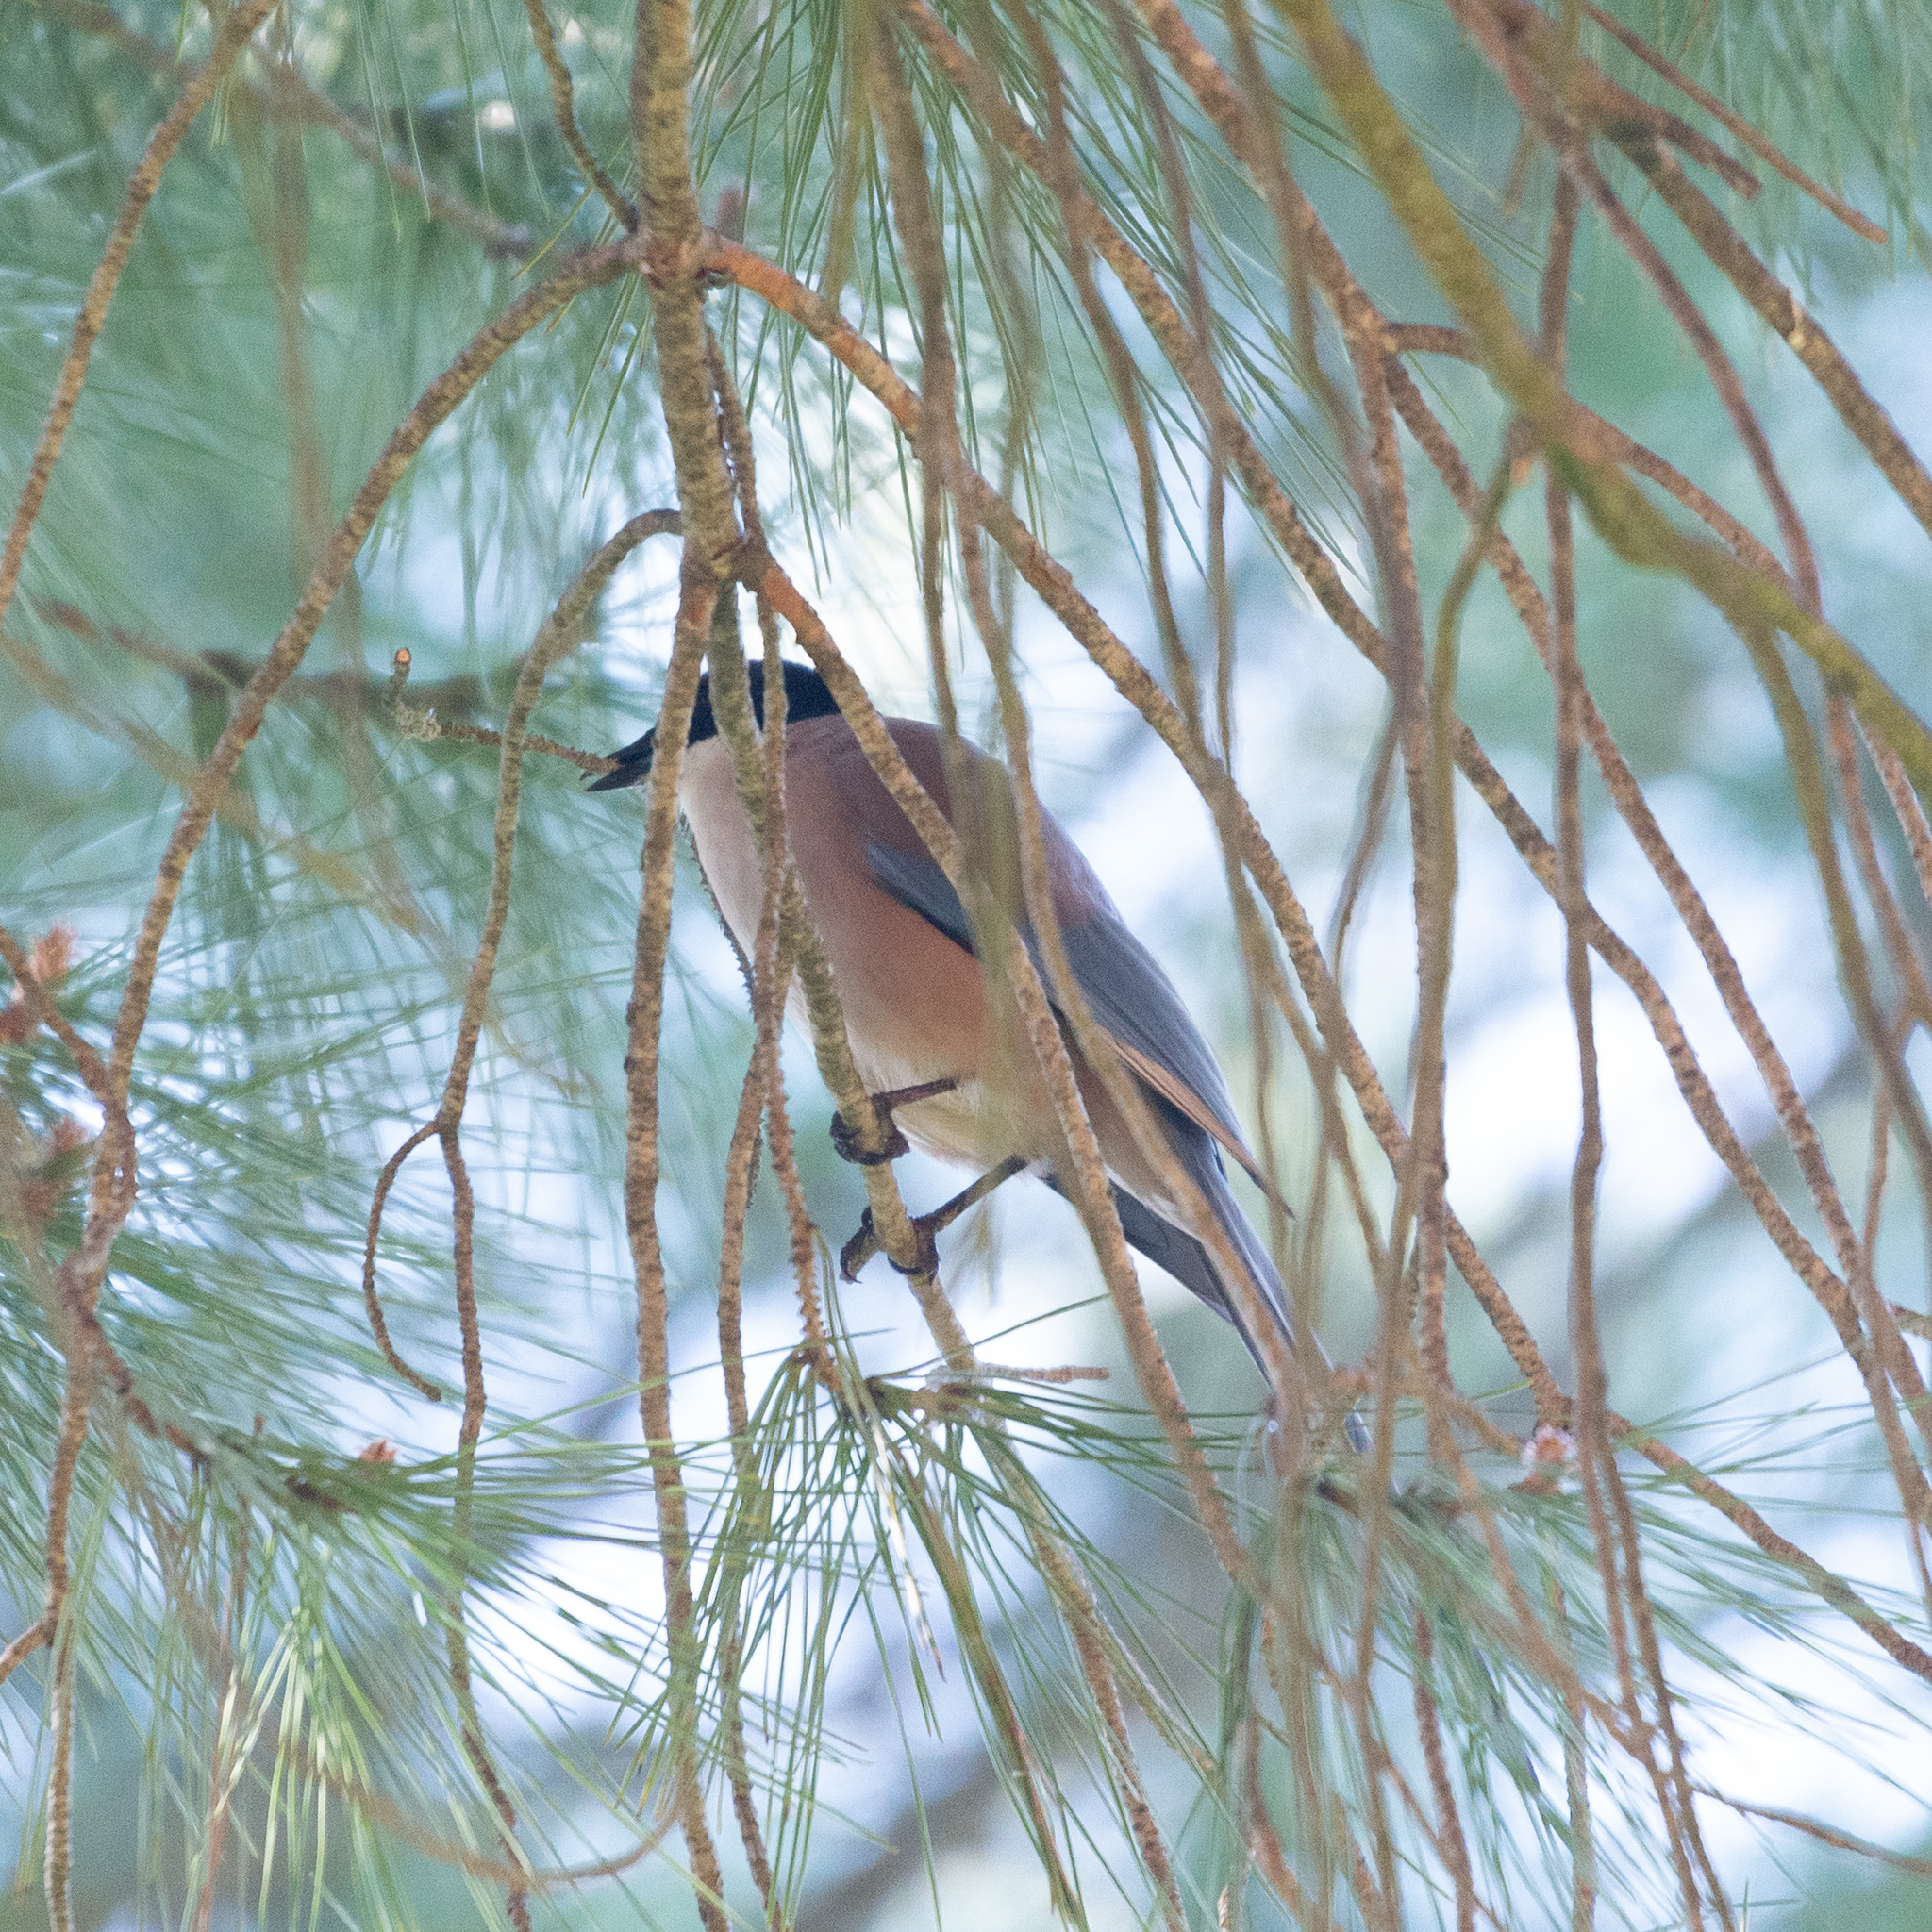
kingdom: Animalia
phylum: Chordata
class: Aves
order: Passeriformes
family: Corvidae
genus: Cyanopica
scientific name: Cyanopica cooki
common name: Iberian magpie
